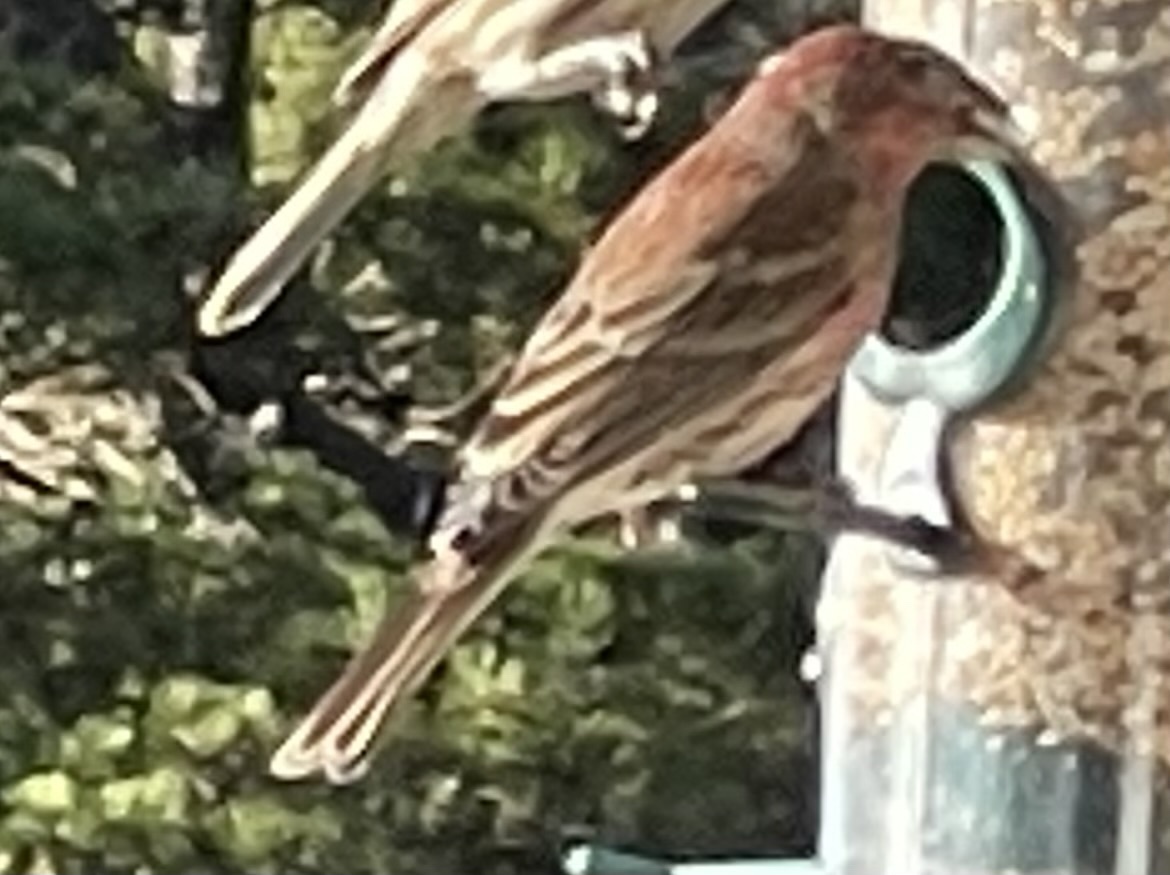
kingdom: Animalia
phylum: Chordata
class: Aves
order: Passeriformes
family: Fringillidae
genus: Haemorhous
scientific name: Haemorhous mexicanus
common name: House finch
